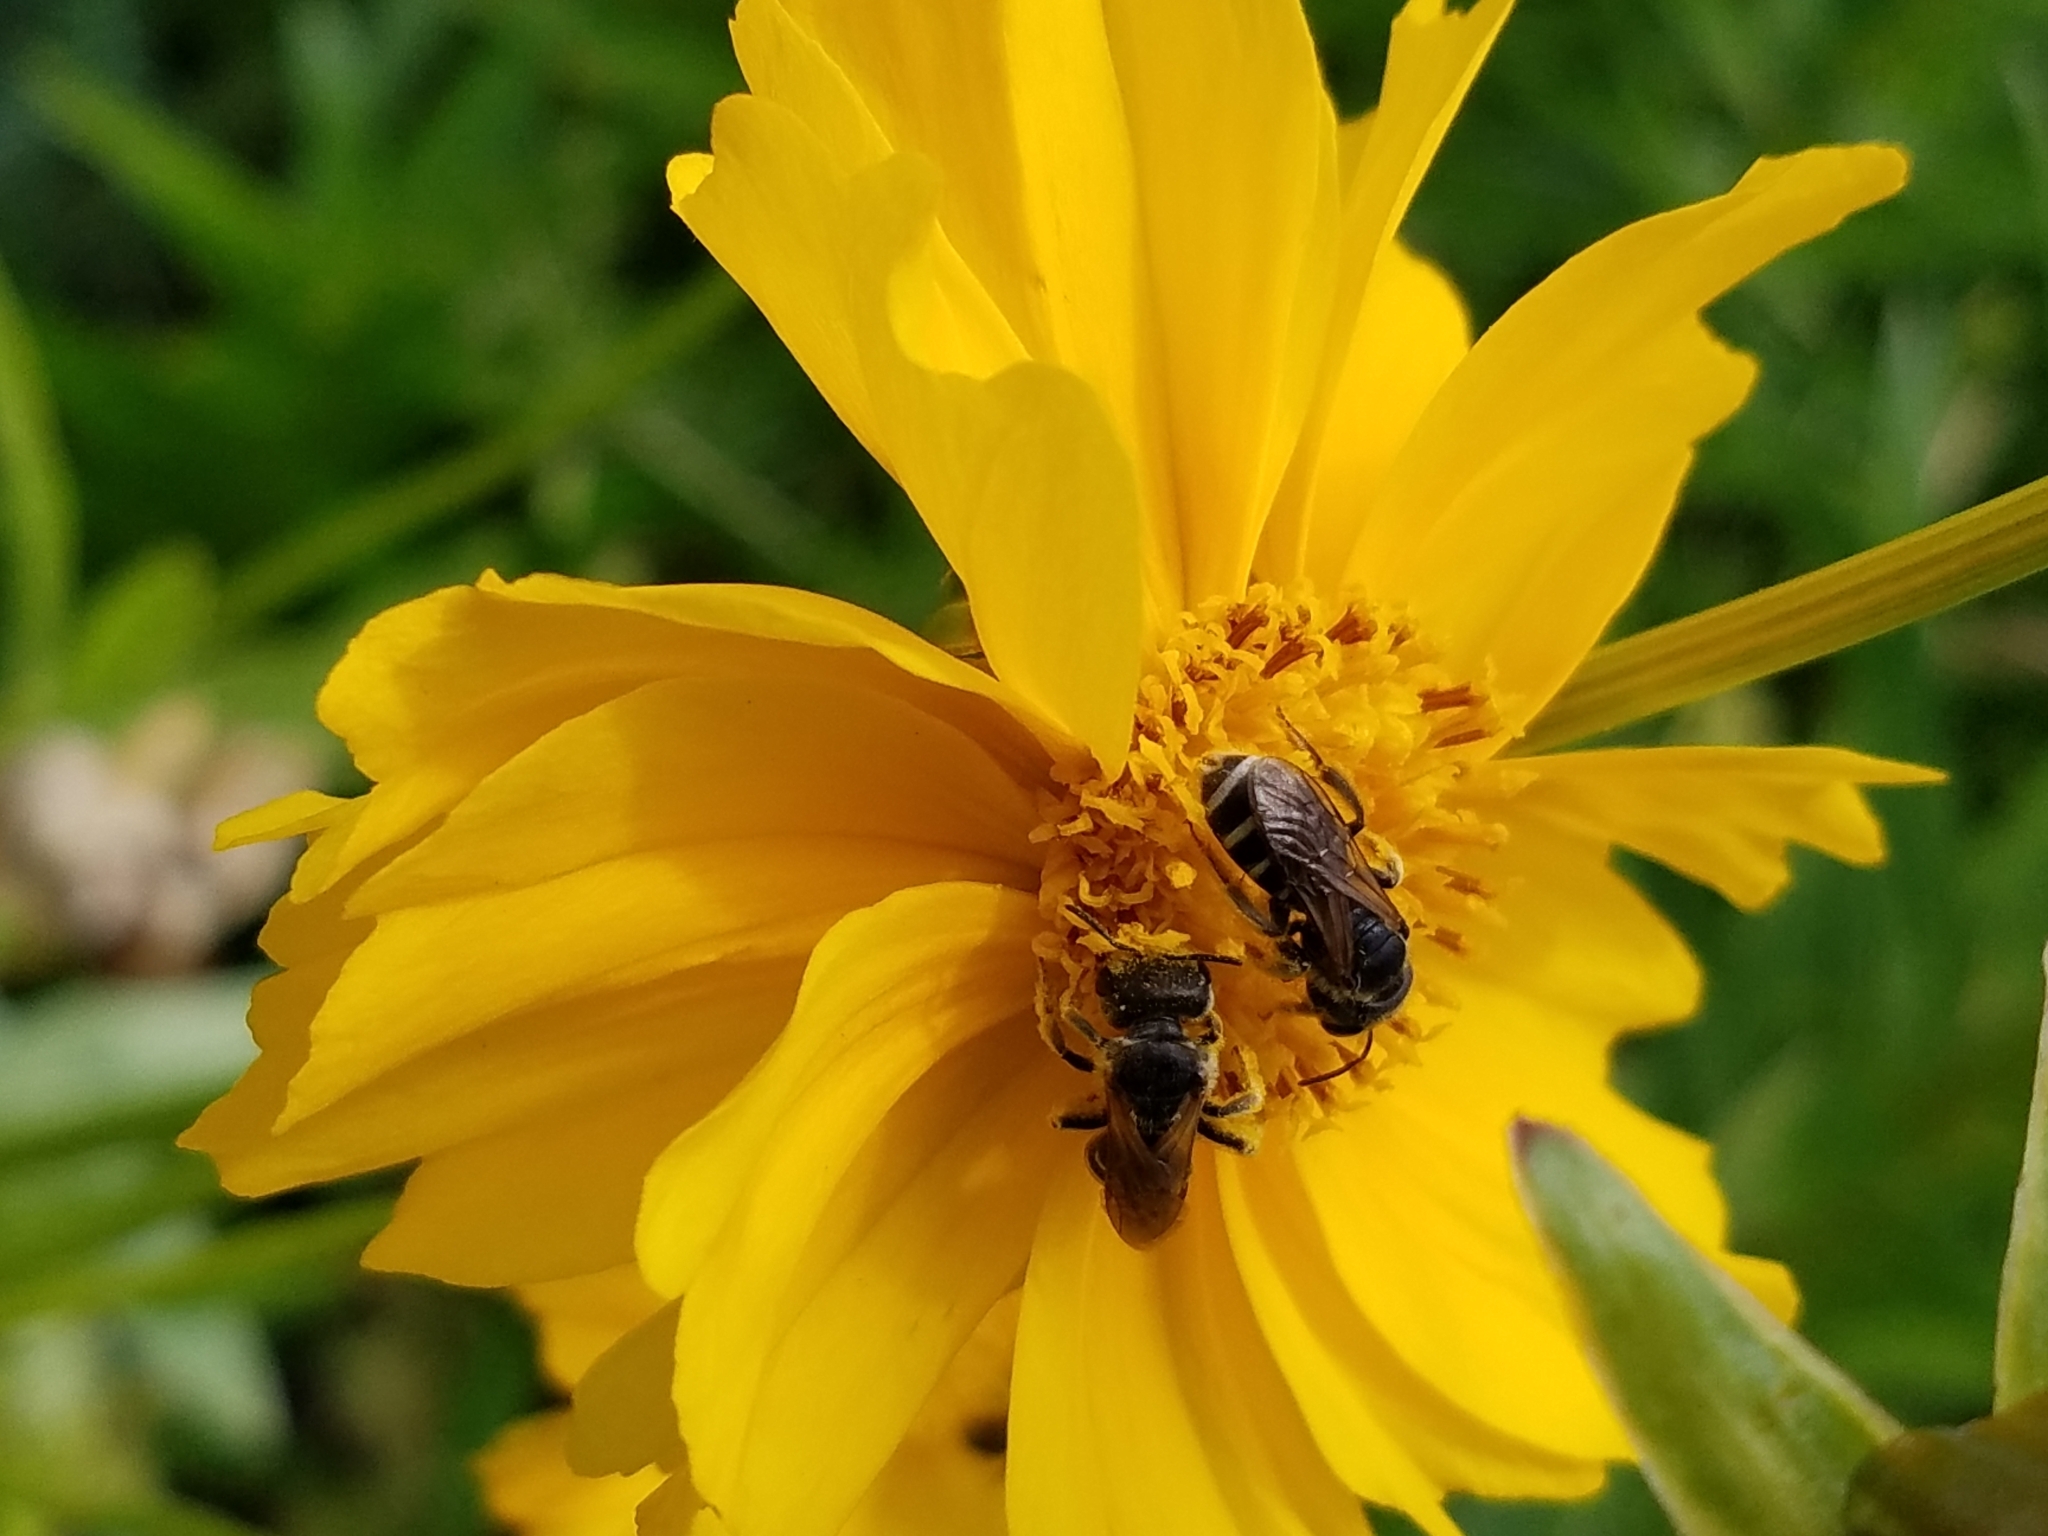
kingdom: Animalia
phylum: Arthropoda
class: Insecta
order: Hymenoptera
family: Halictidae
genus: Halictus
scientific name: Halictus ligatus
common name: Ligated furrow bee
